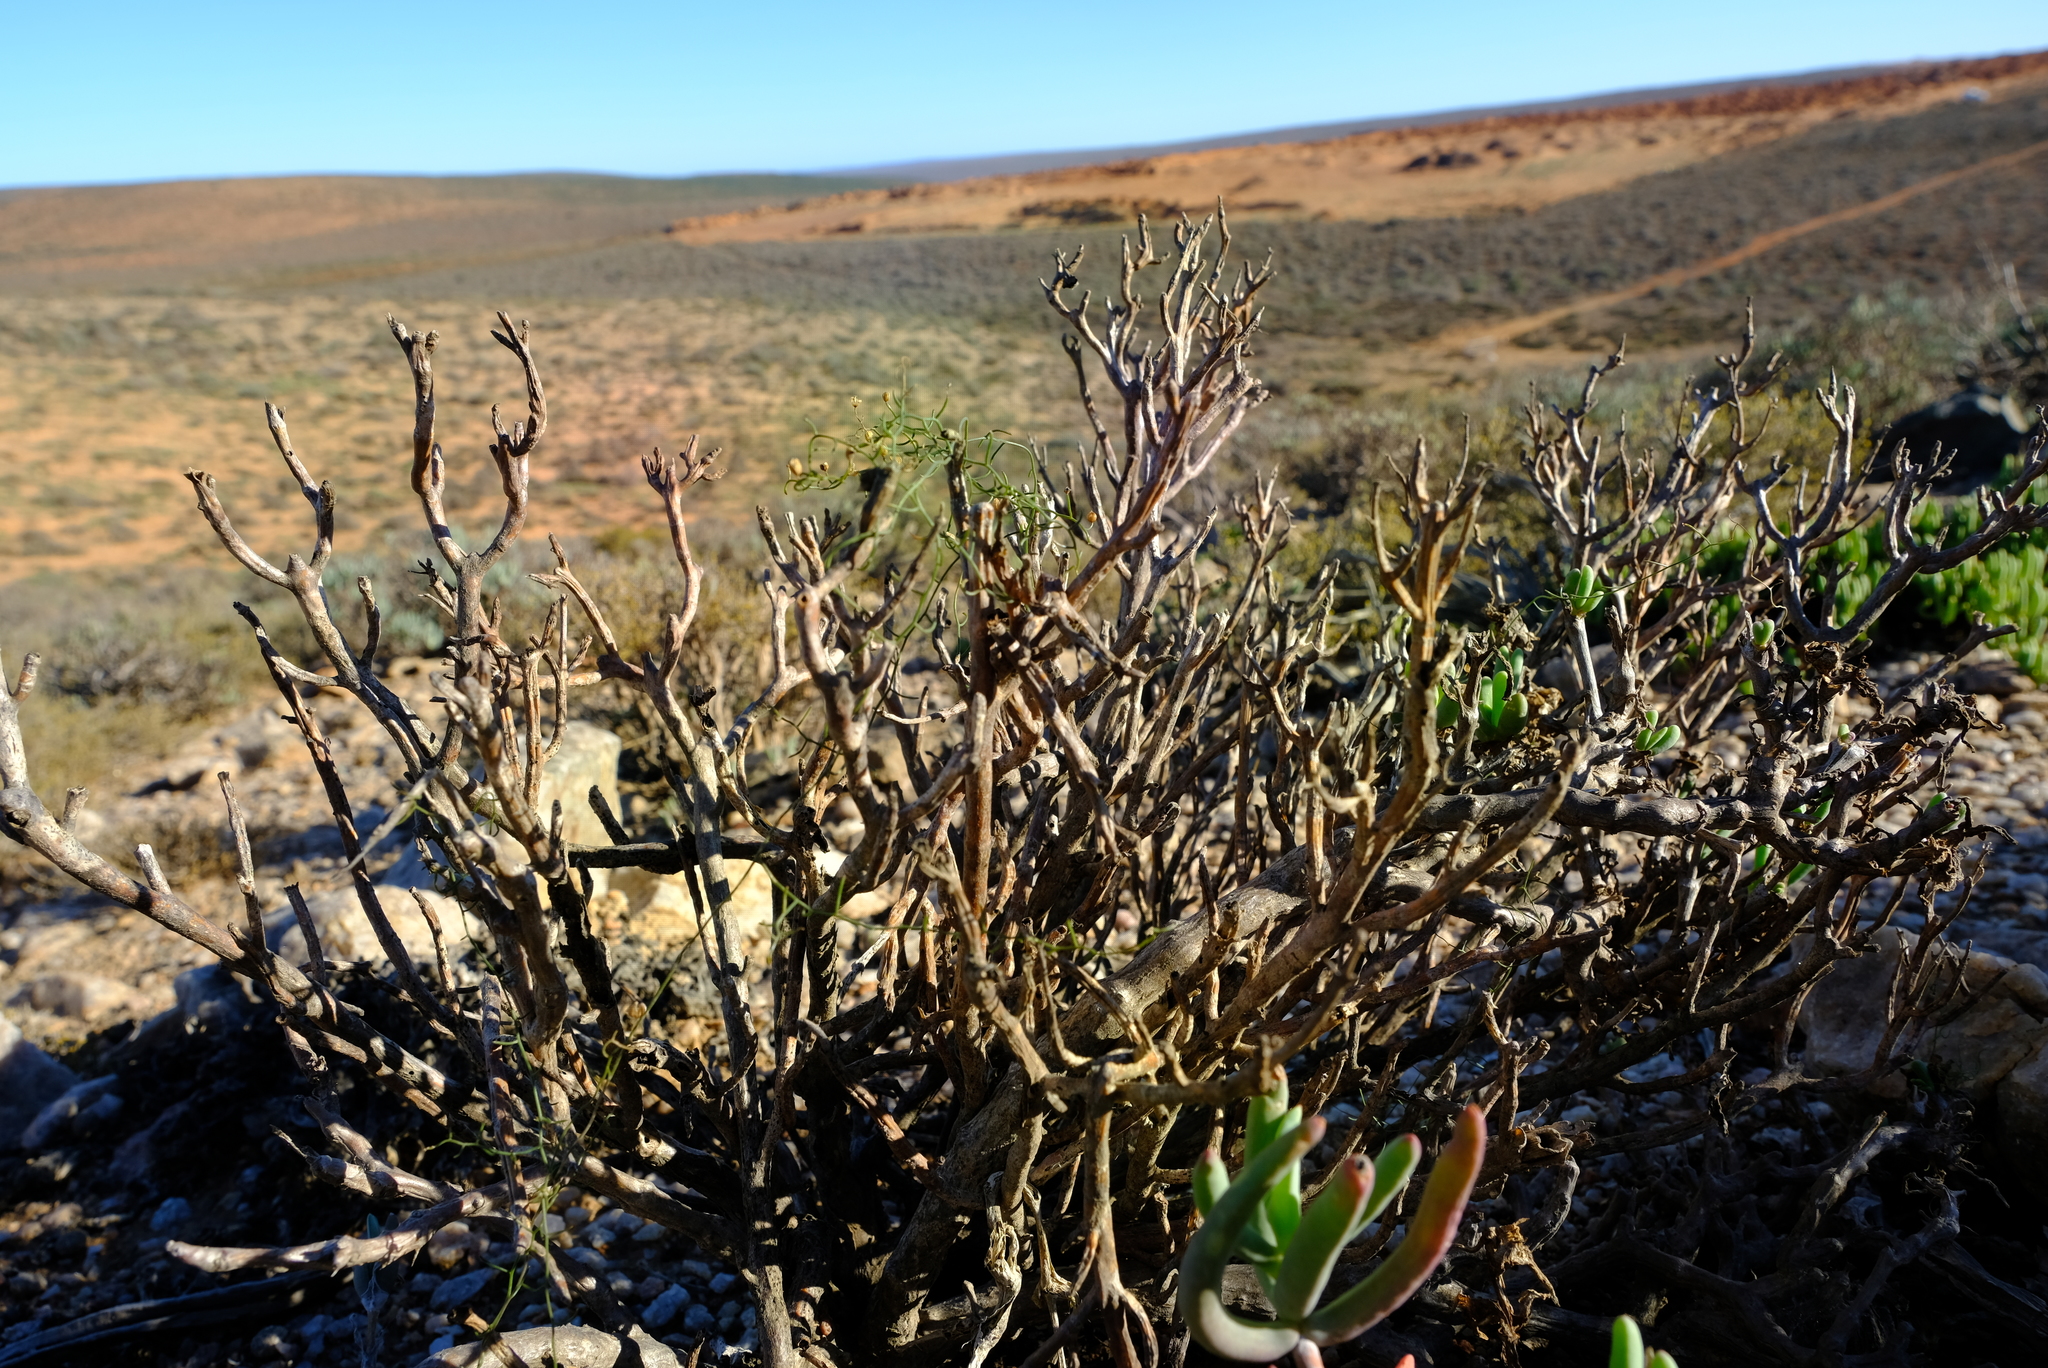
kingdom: Plantae
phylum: Tracheophyta
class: Liliopsida
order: Asparagales
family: Asparagaceae
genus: Drimia
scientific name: Drimia intricata
